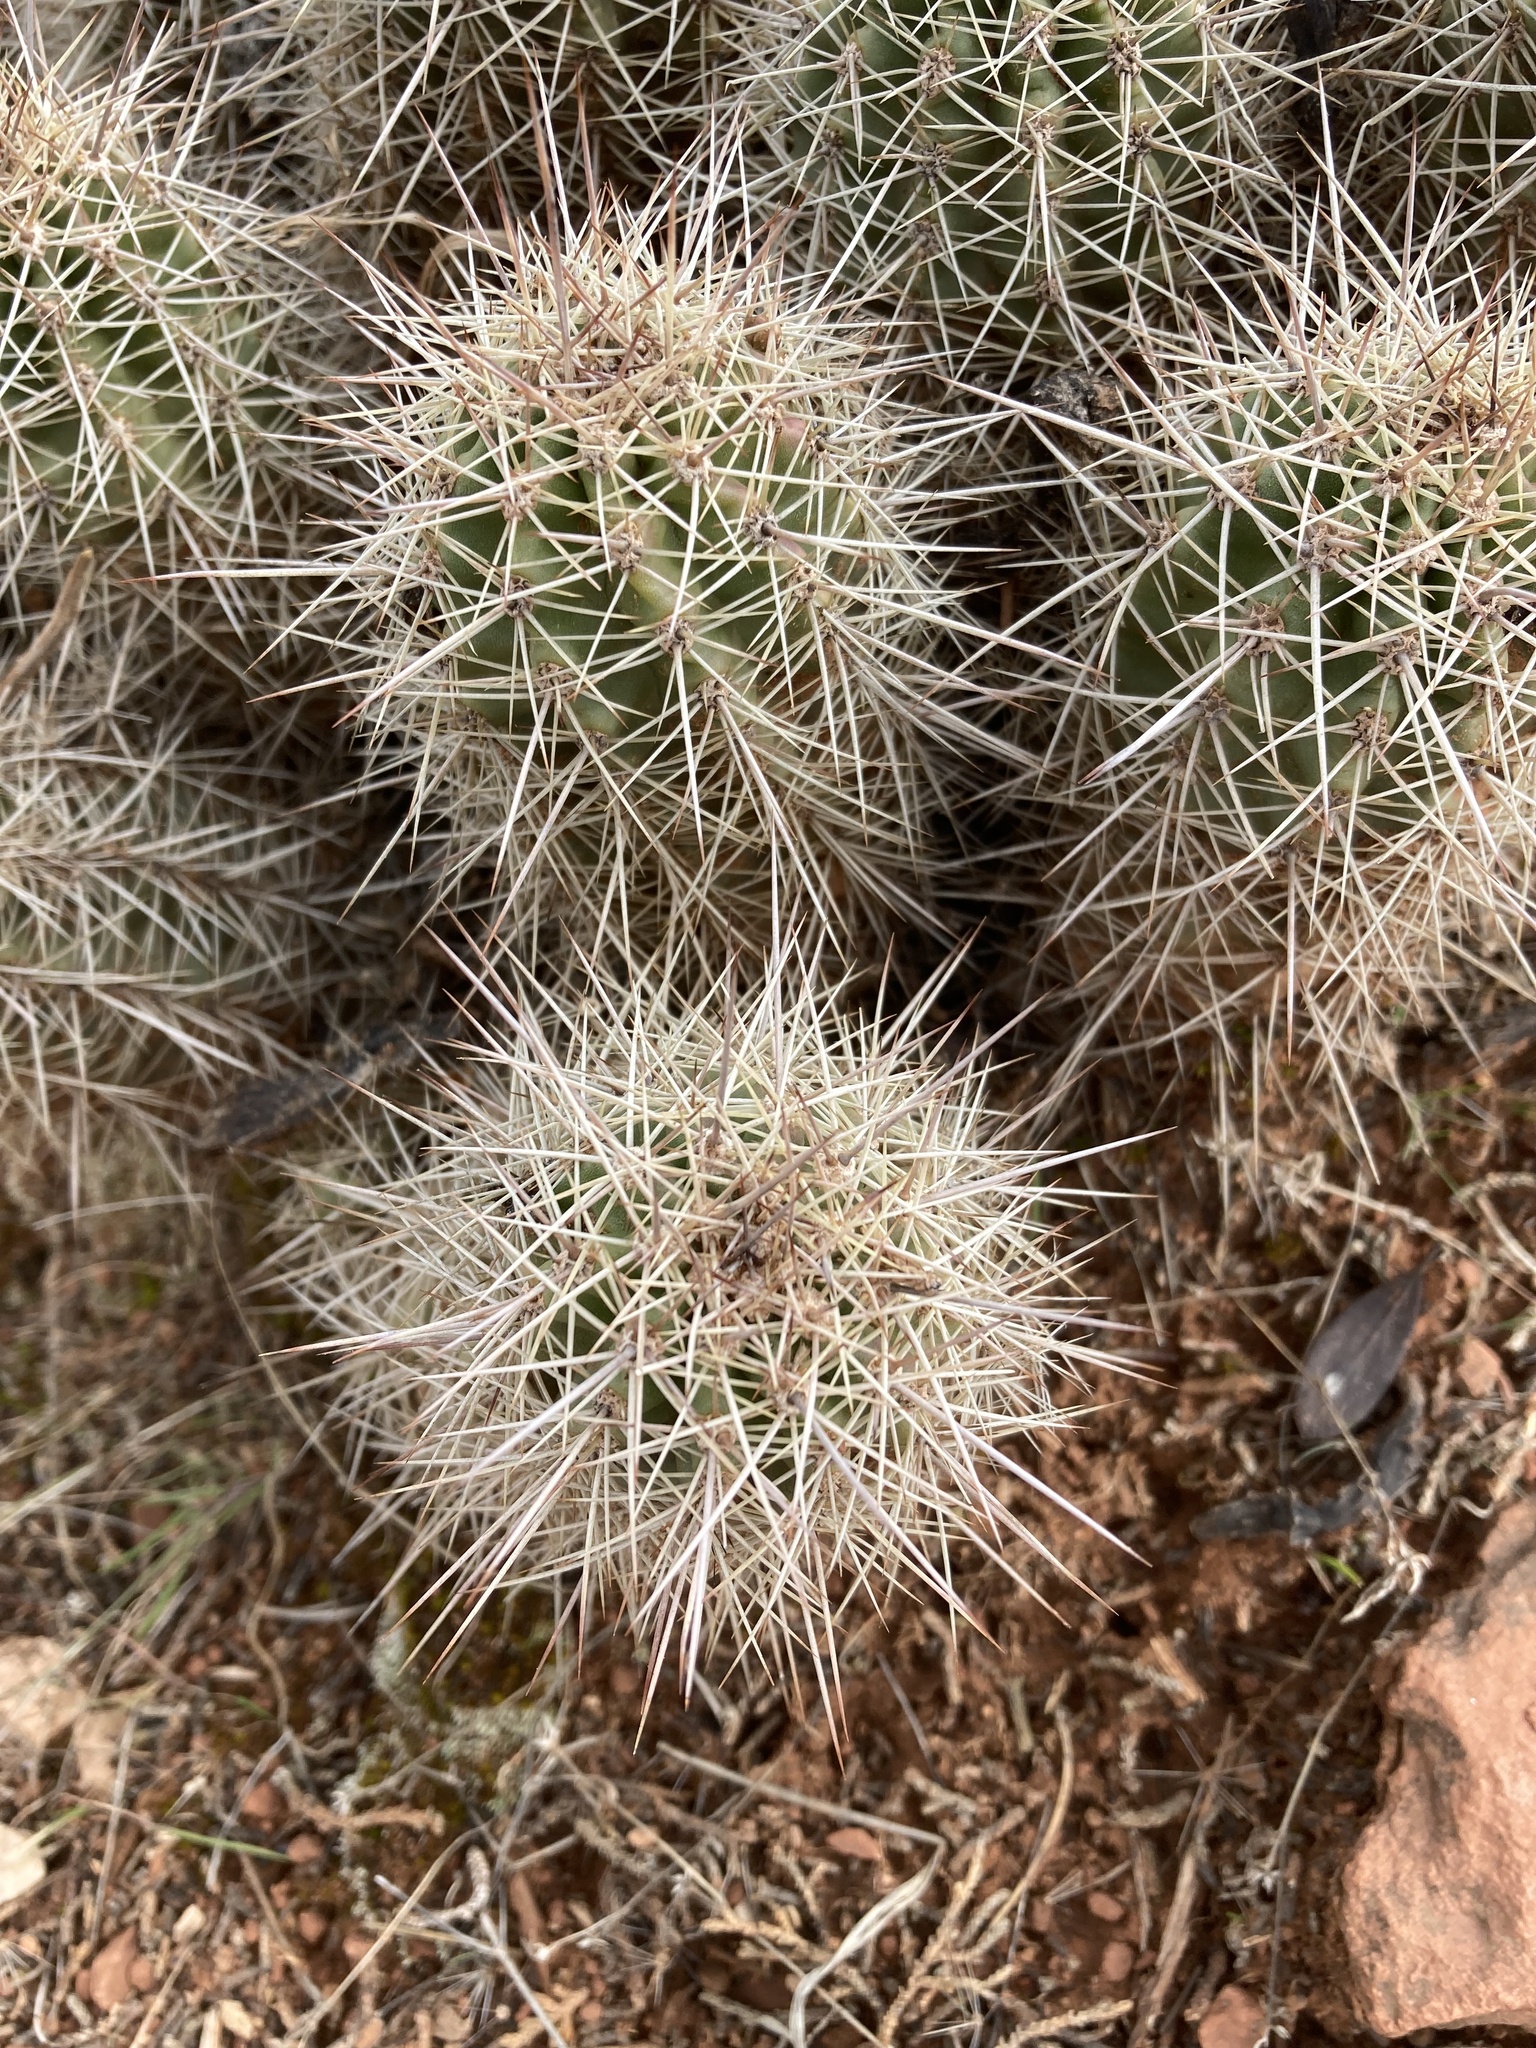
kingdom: Plantae
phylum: Tracheophyta
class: Magnoliopsida
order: Caryophyllales
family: Cactaceae
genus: Echinocereus
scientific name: Echinocereus bakeri
